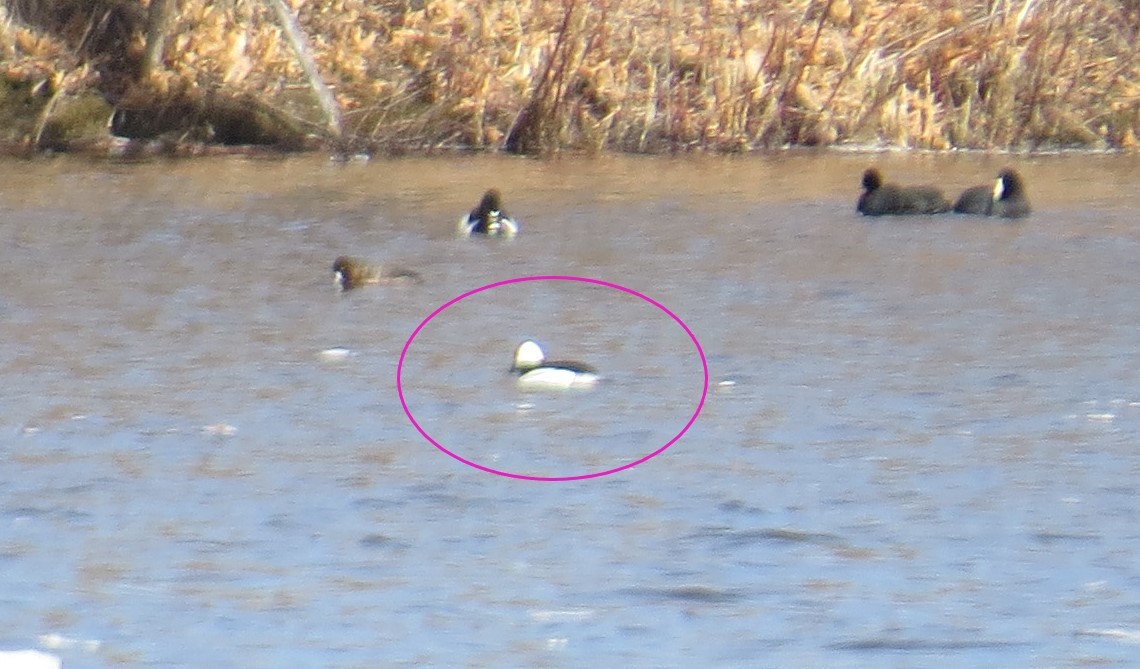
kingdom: Animalia
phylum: Chordata
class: Aves
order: Anseriformes
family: Anatidae
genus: Bucephala
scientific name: Bucephala albeola
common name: Bufflehead
